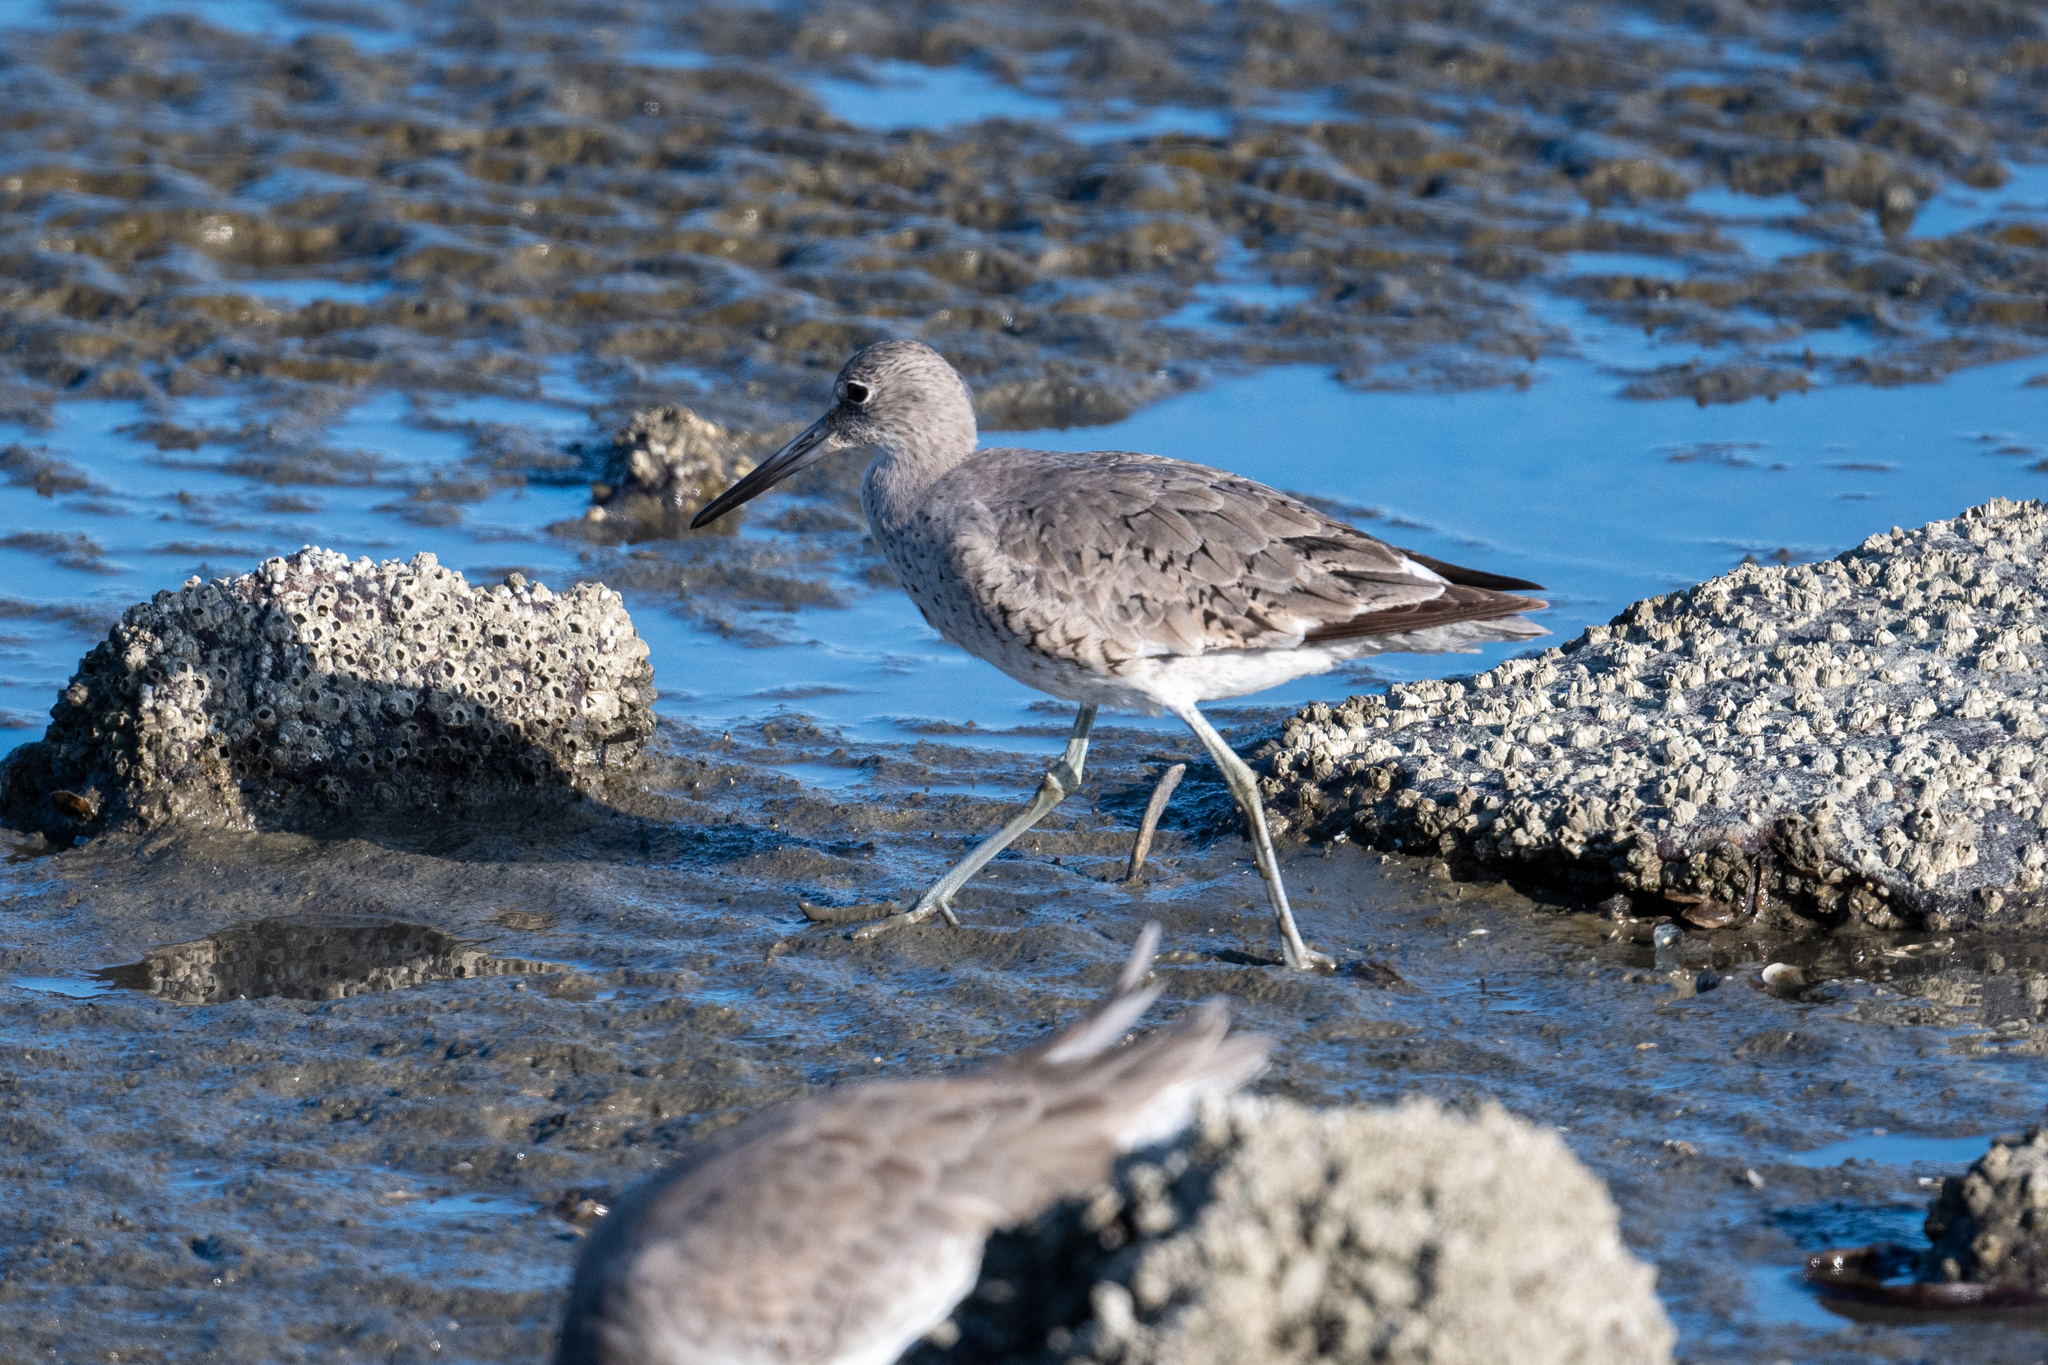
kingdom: Animalia
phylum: Chordata
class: Aves
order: Charadriiformes
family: Scolopacidae
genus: Tringa
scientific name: Tringa semipalmata
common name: Willet
